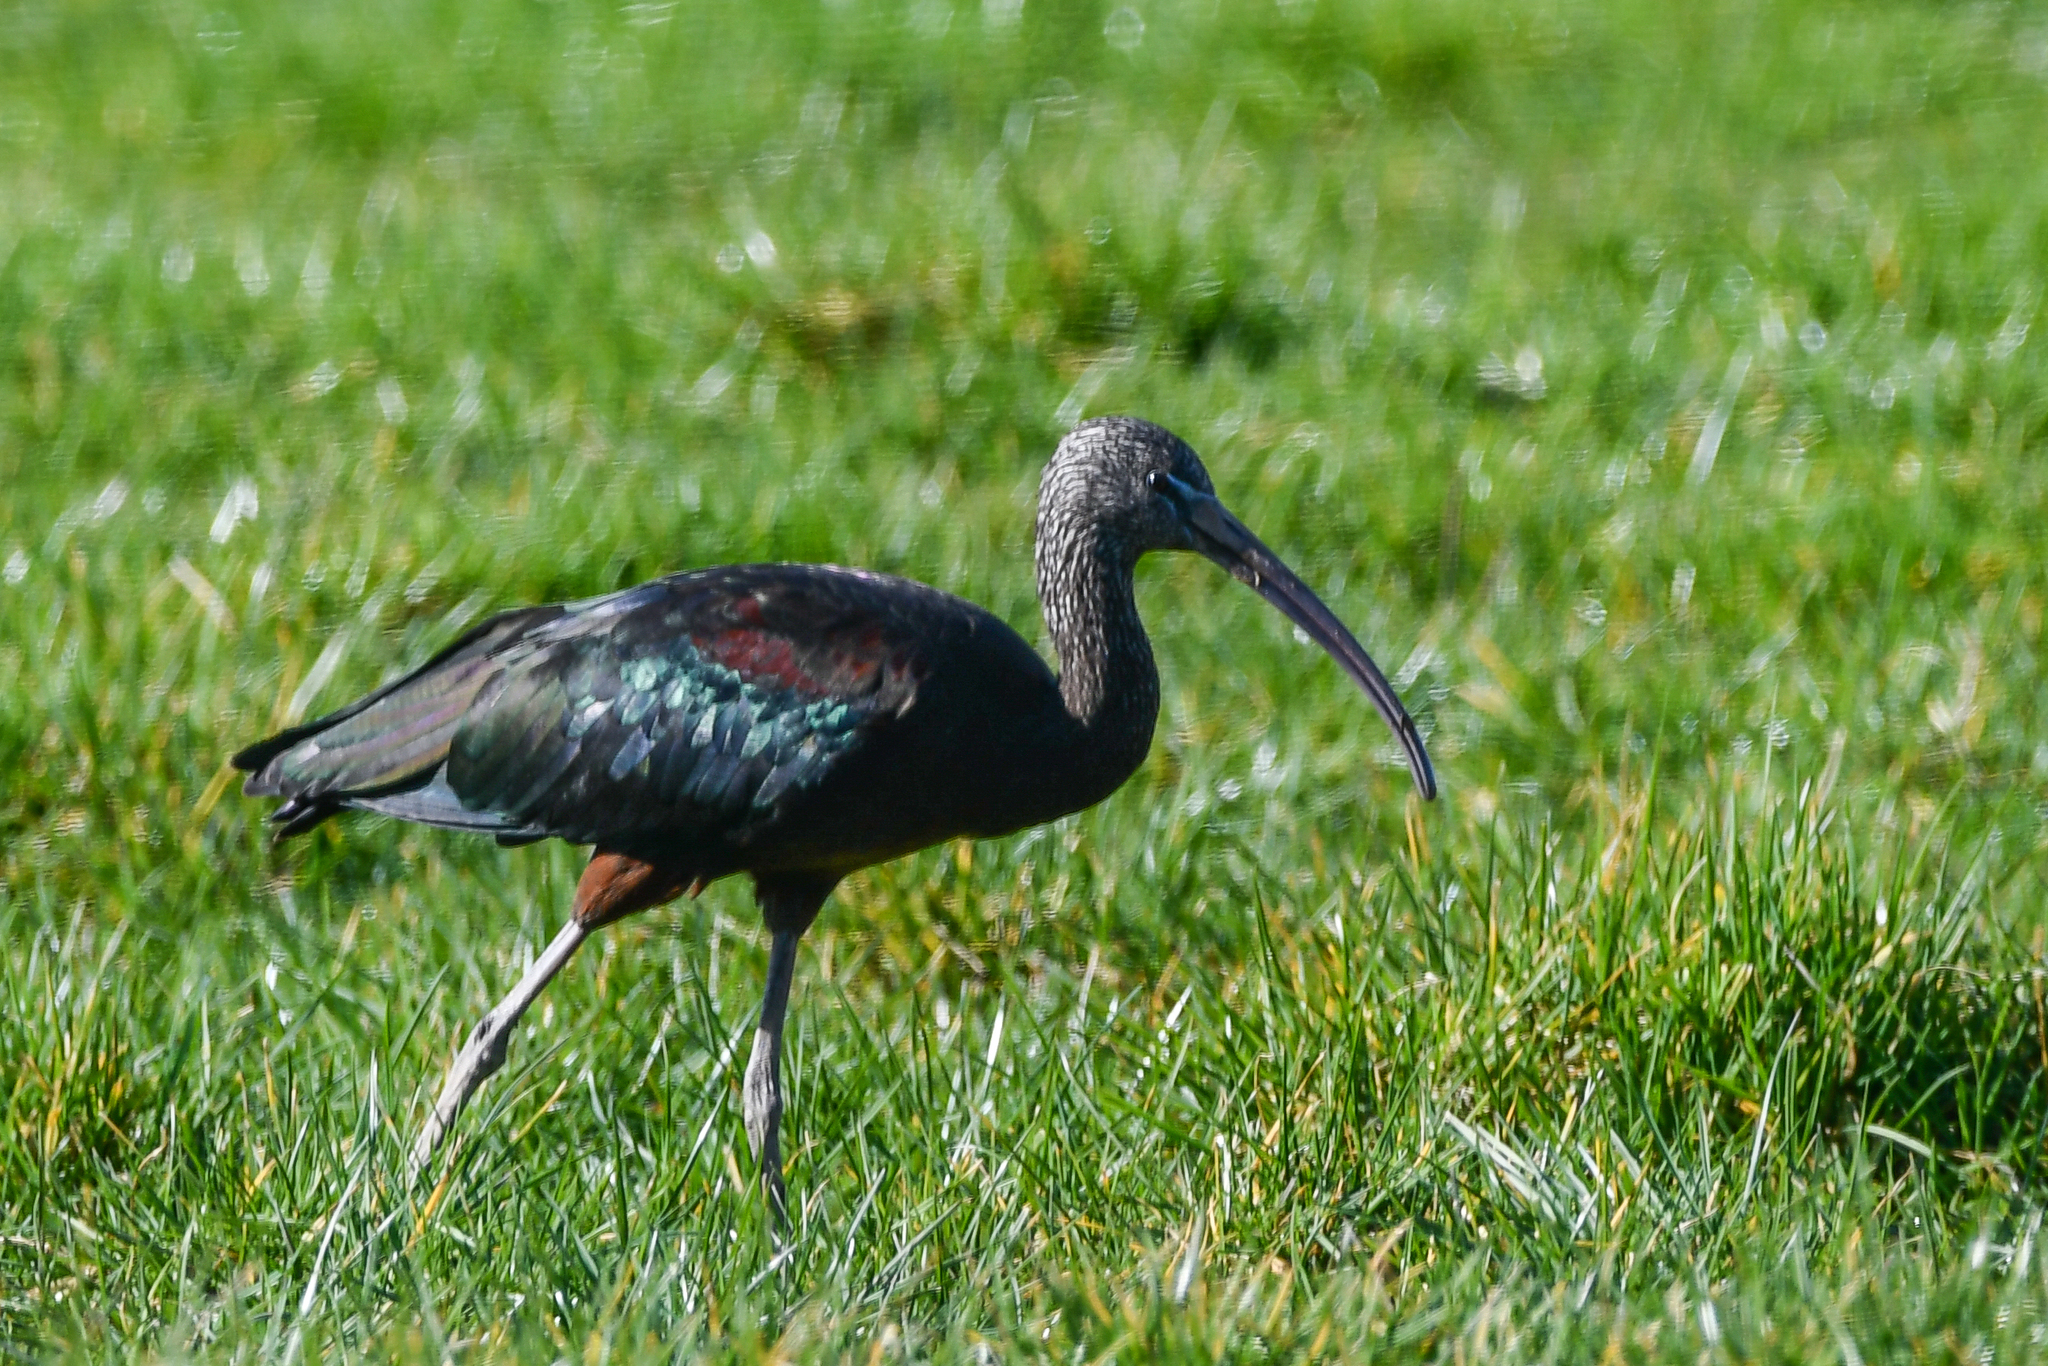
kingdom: Animalia
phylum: Chordata
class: Aves
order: Pelecaniformes
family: Threskiornithidae
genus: Plegadis
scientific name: Plegadis falcinellus
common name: Glossy ibis
